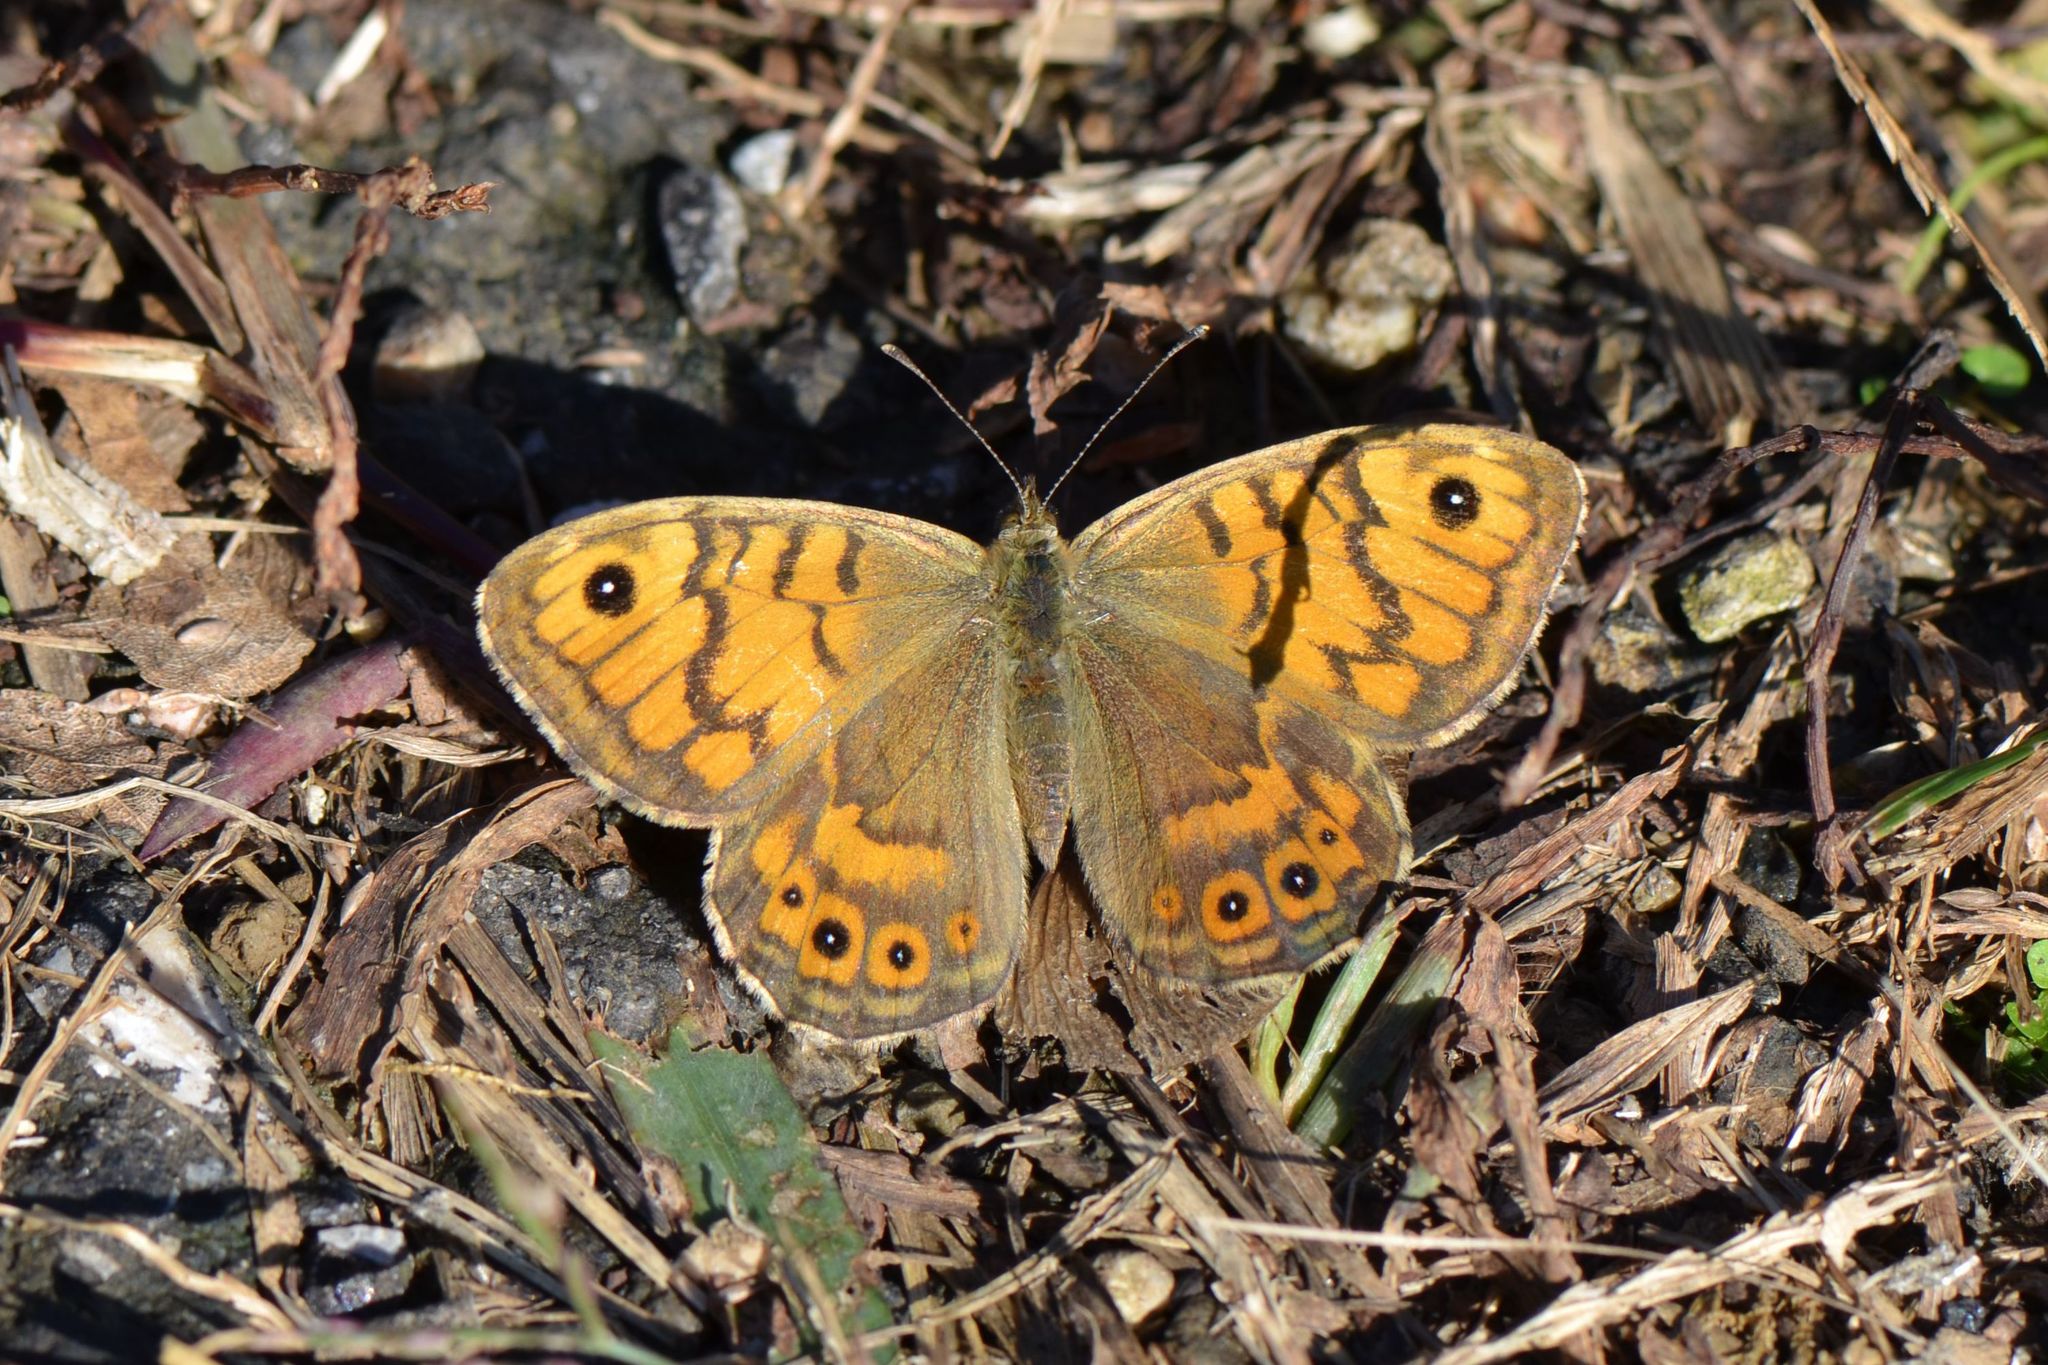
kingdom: Animalia
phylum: Arthropoda
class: Insecta
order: Lepidoptera
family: Nymphalidae
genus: Pararge
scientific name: Pararge Lasiommata megera
